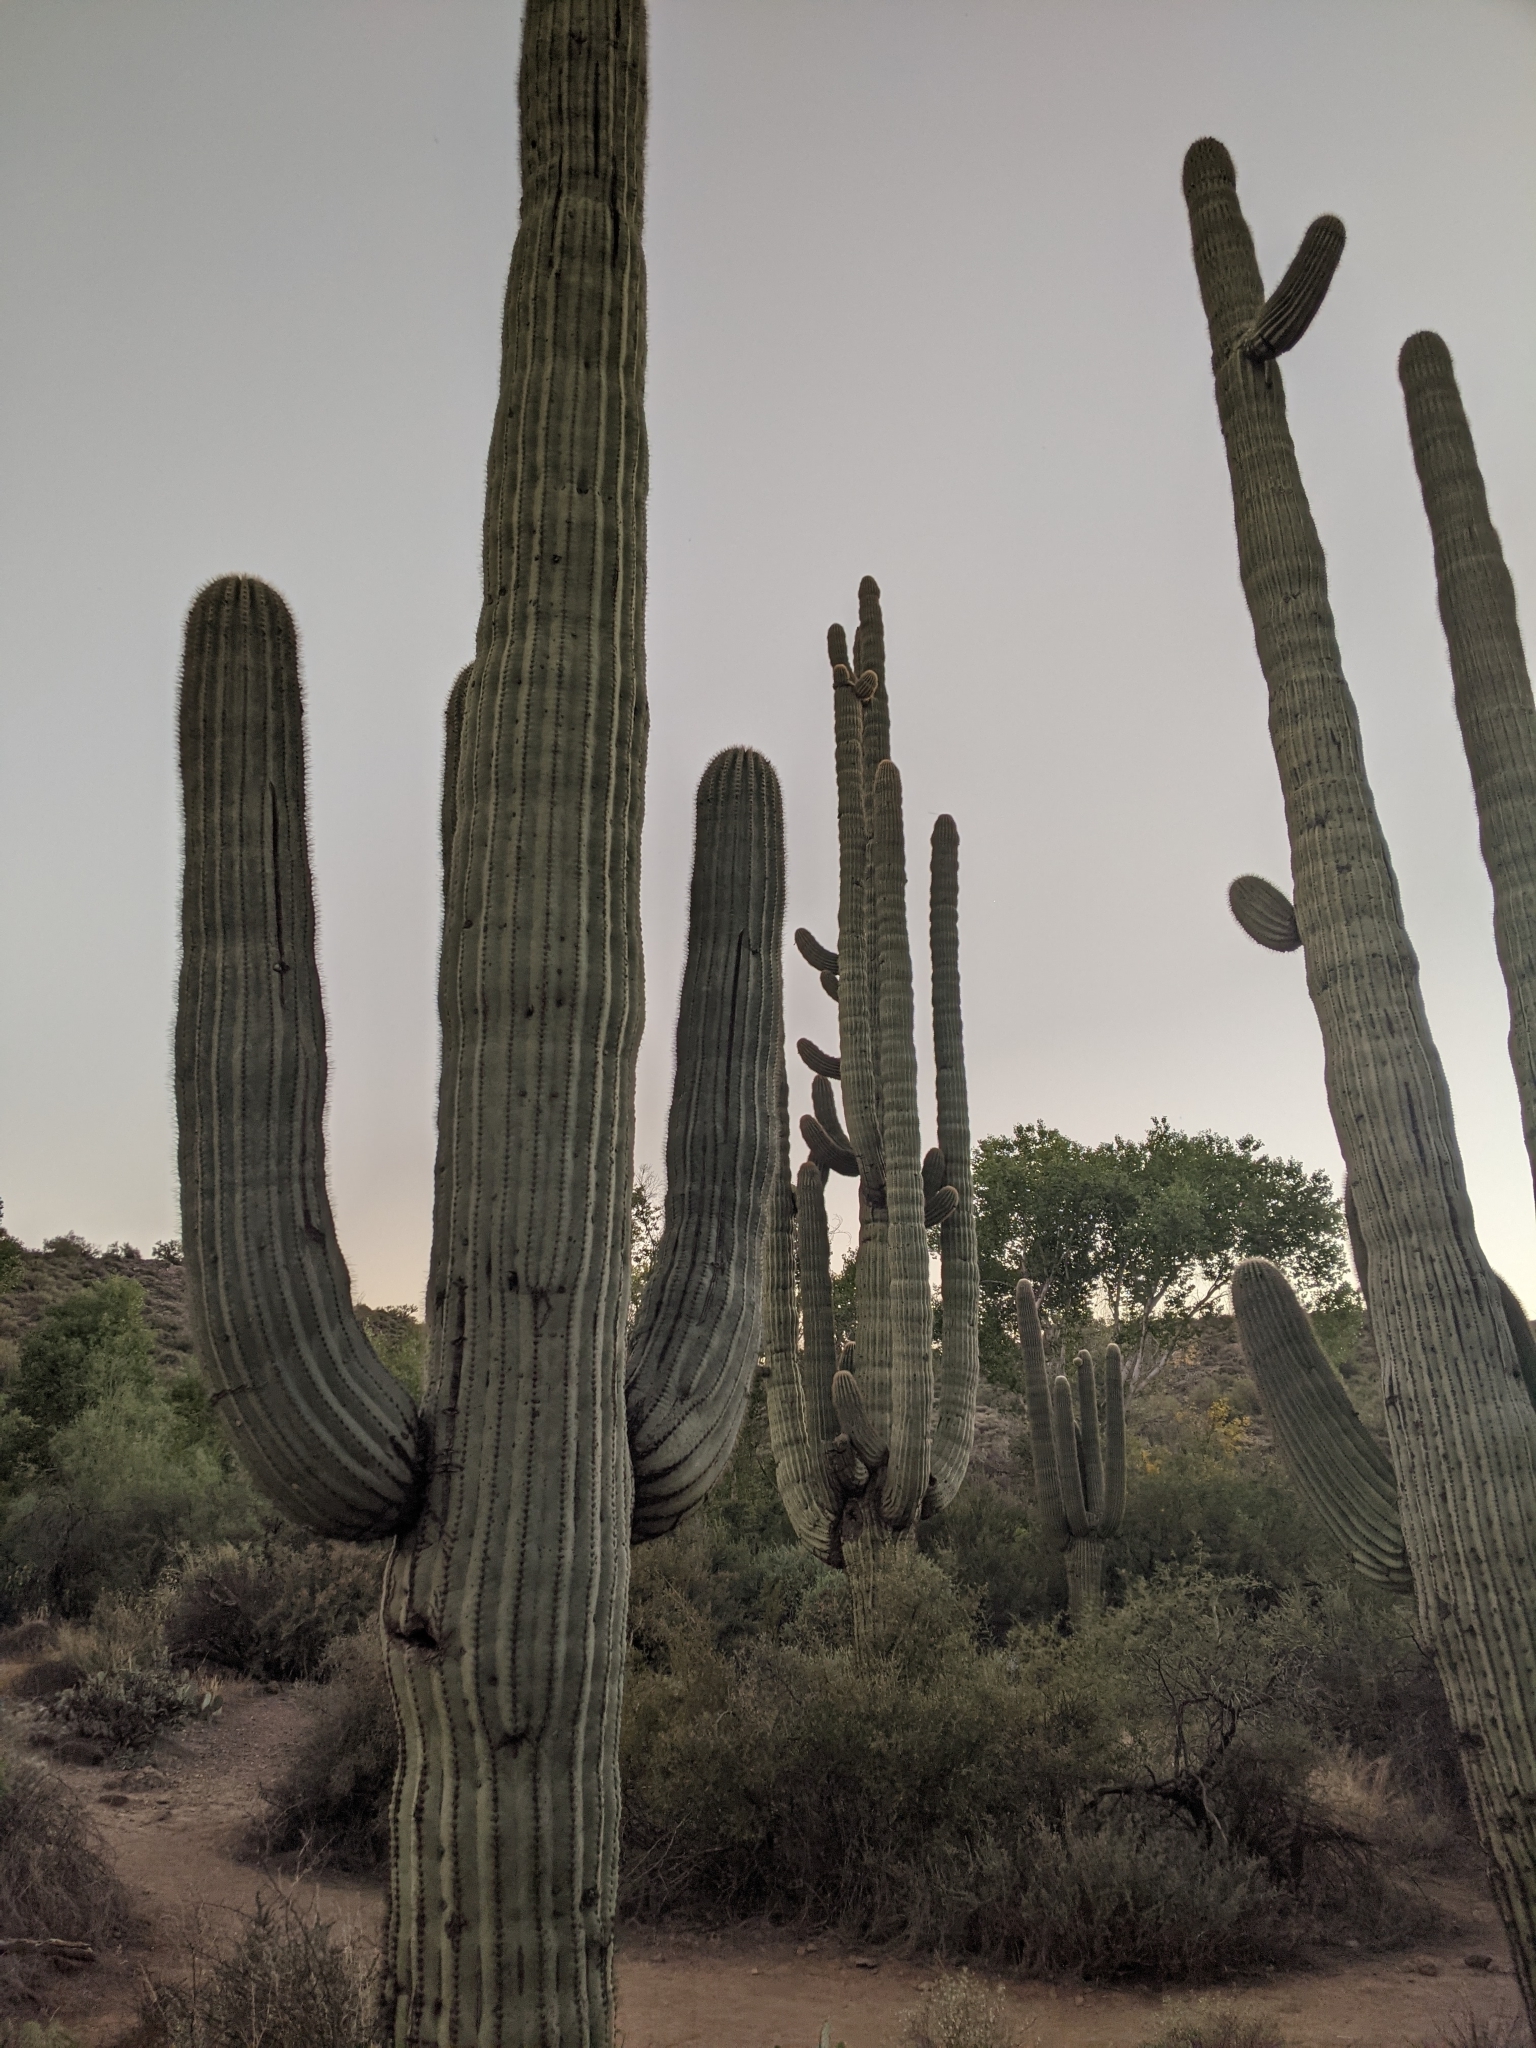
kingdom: Plantae
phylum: Tracheophyta
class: Magnoliopsida
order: Caryophyllales
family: Cactaceae
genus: Carnegiea
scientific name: Carnegiea gigantea
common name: Saguaro
